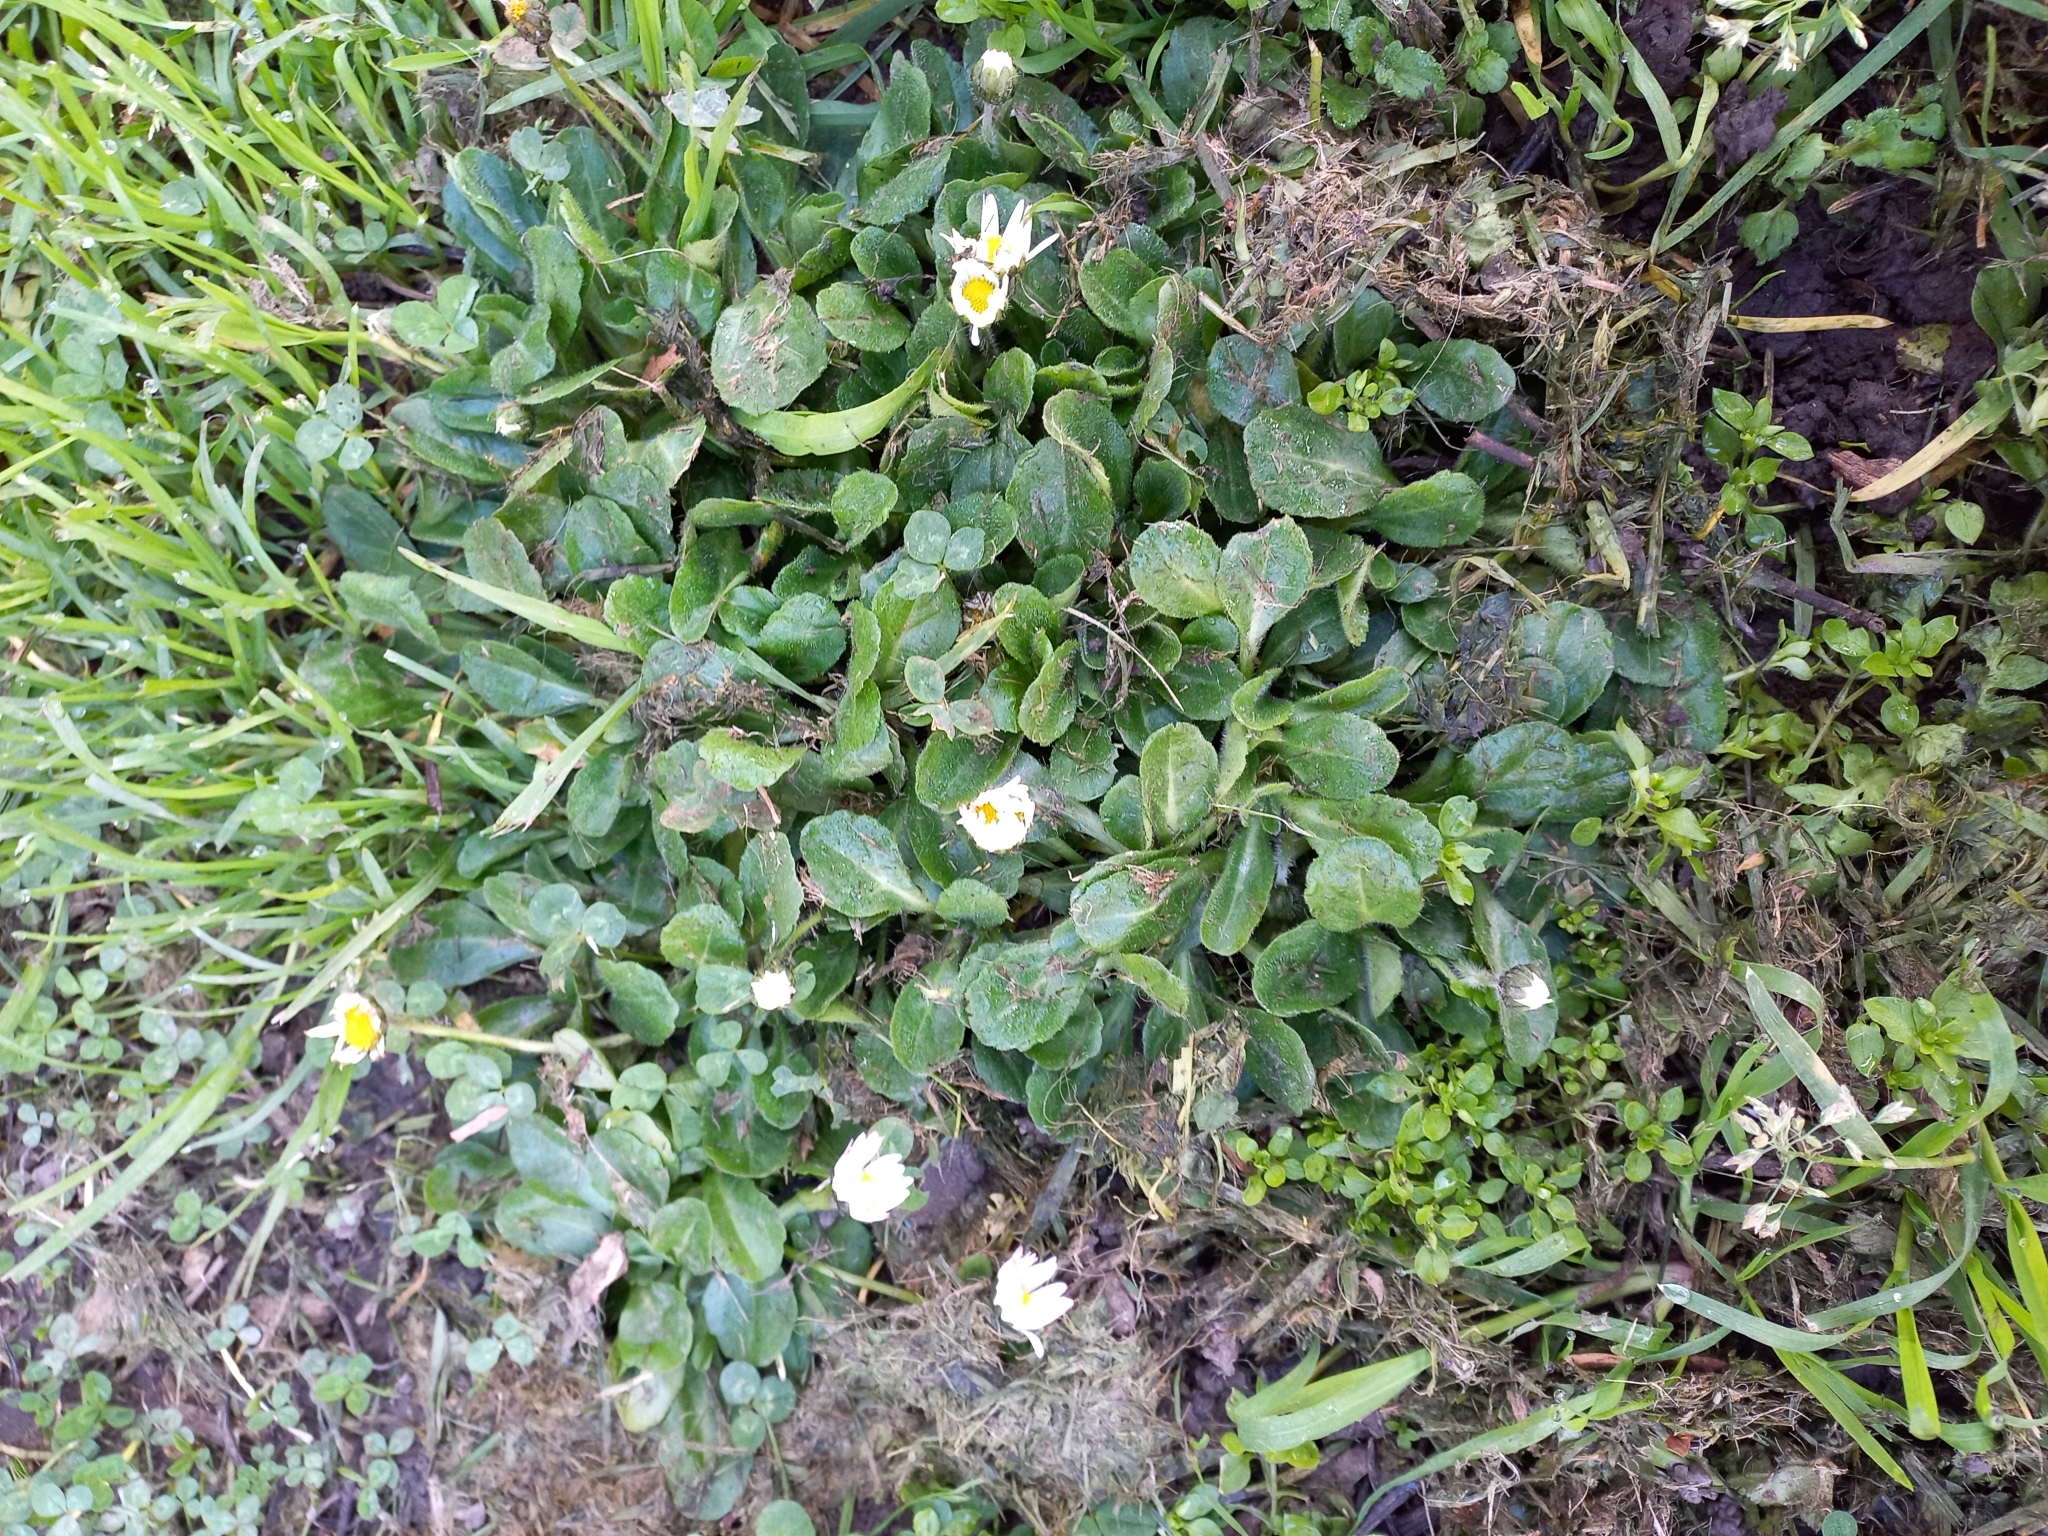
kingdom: Plantae
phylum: Tracheophyta
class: Magnoliopsida
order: Asterales
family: Asteraceae
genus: Bellis
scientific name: Bellis perennis
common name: Lawndaisy
